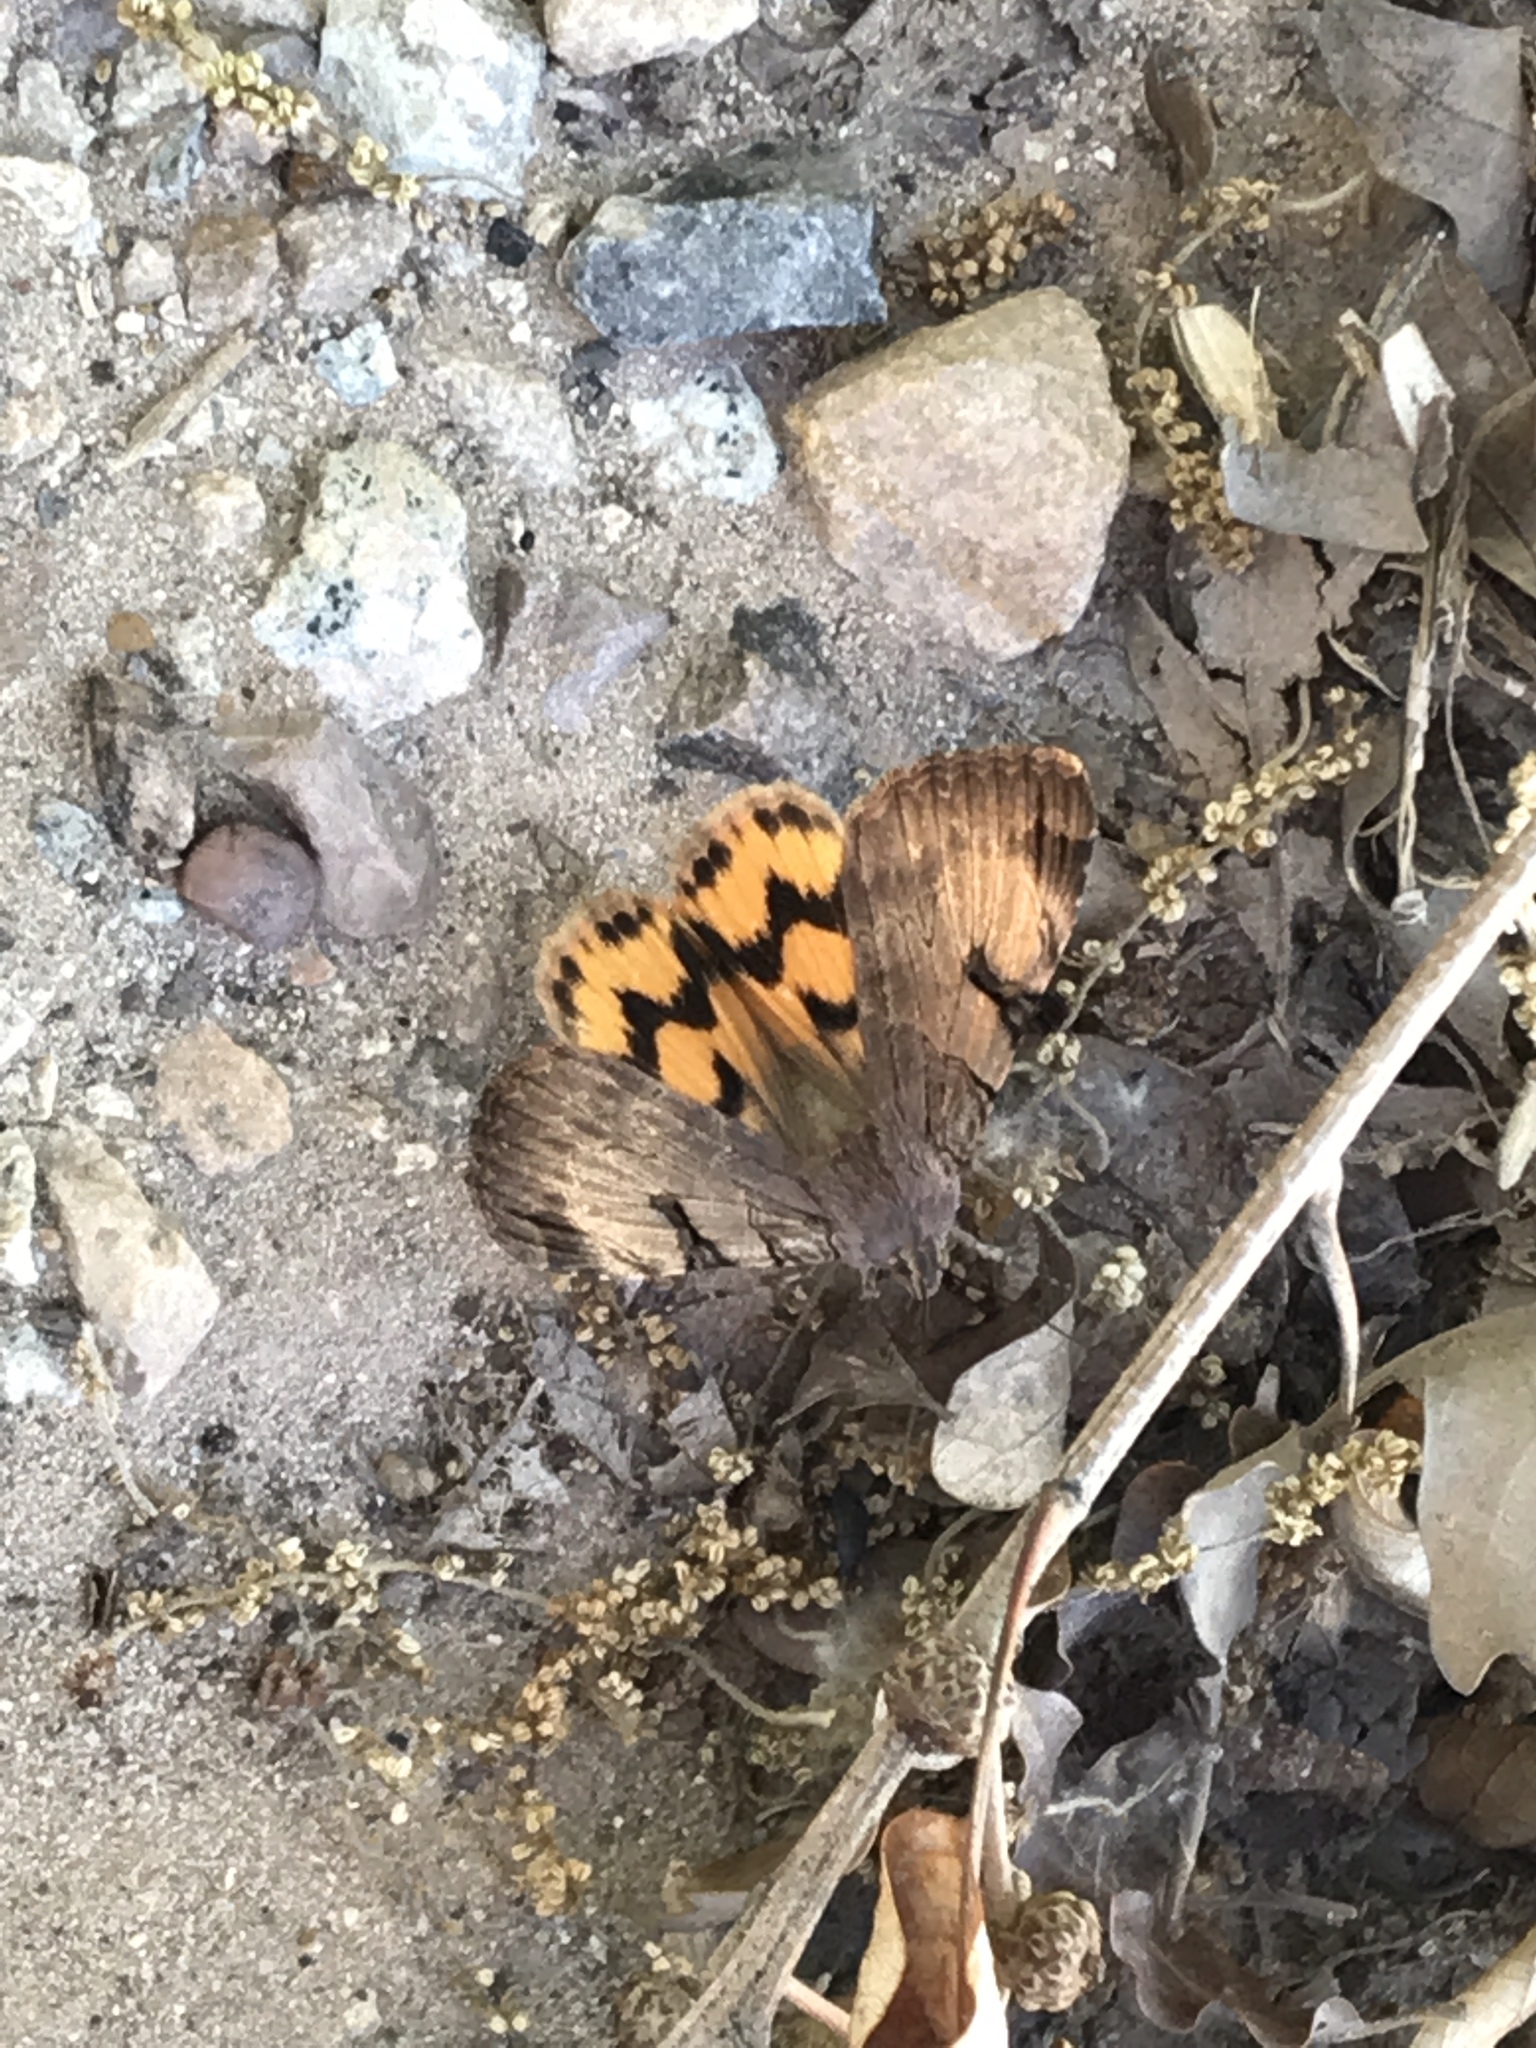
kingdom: Animalia
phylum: Arthropoda
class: Insecta
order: Lepidoptera
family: Erebidae
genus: Drasteria
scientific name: Drasteria ochracea
